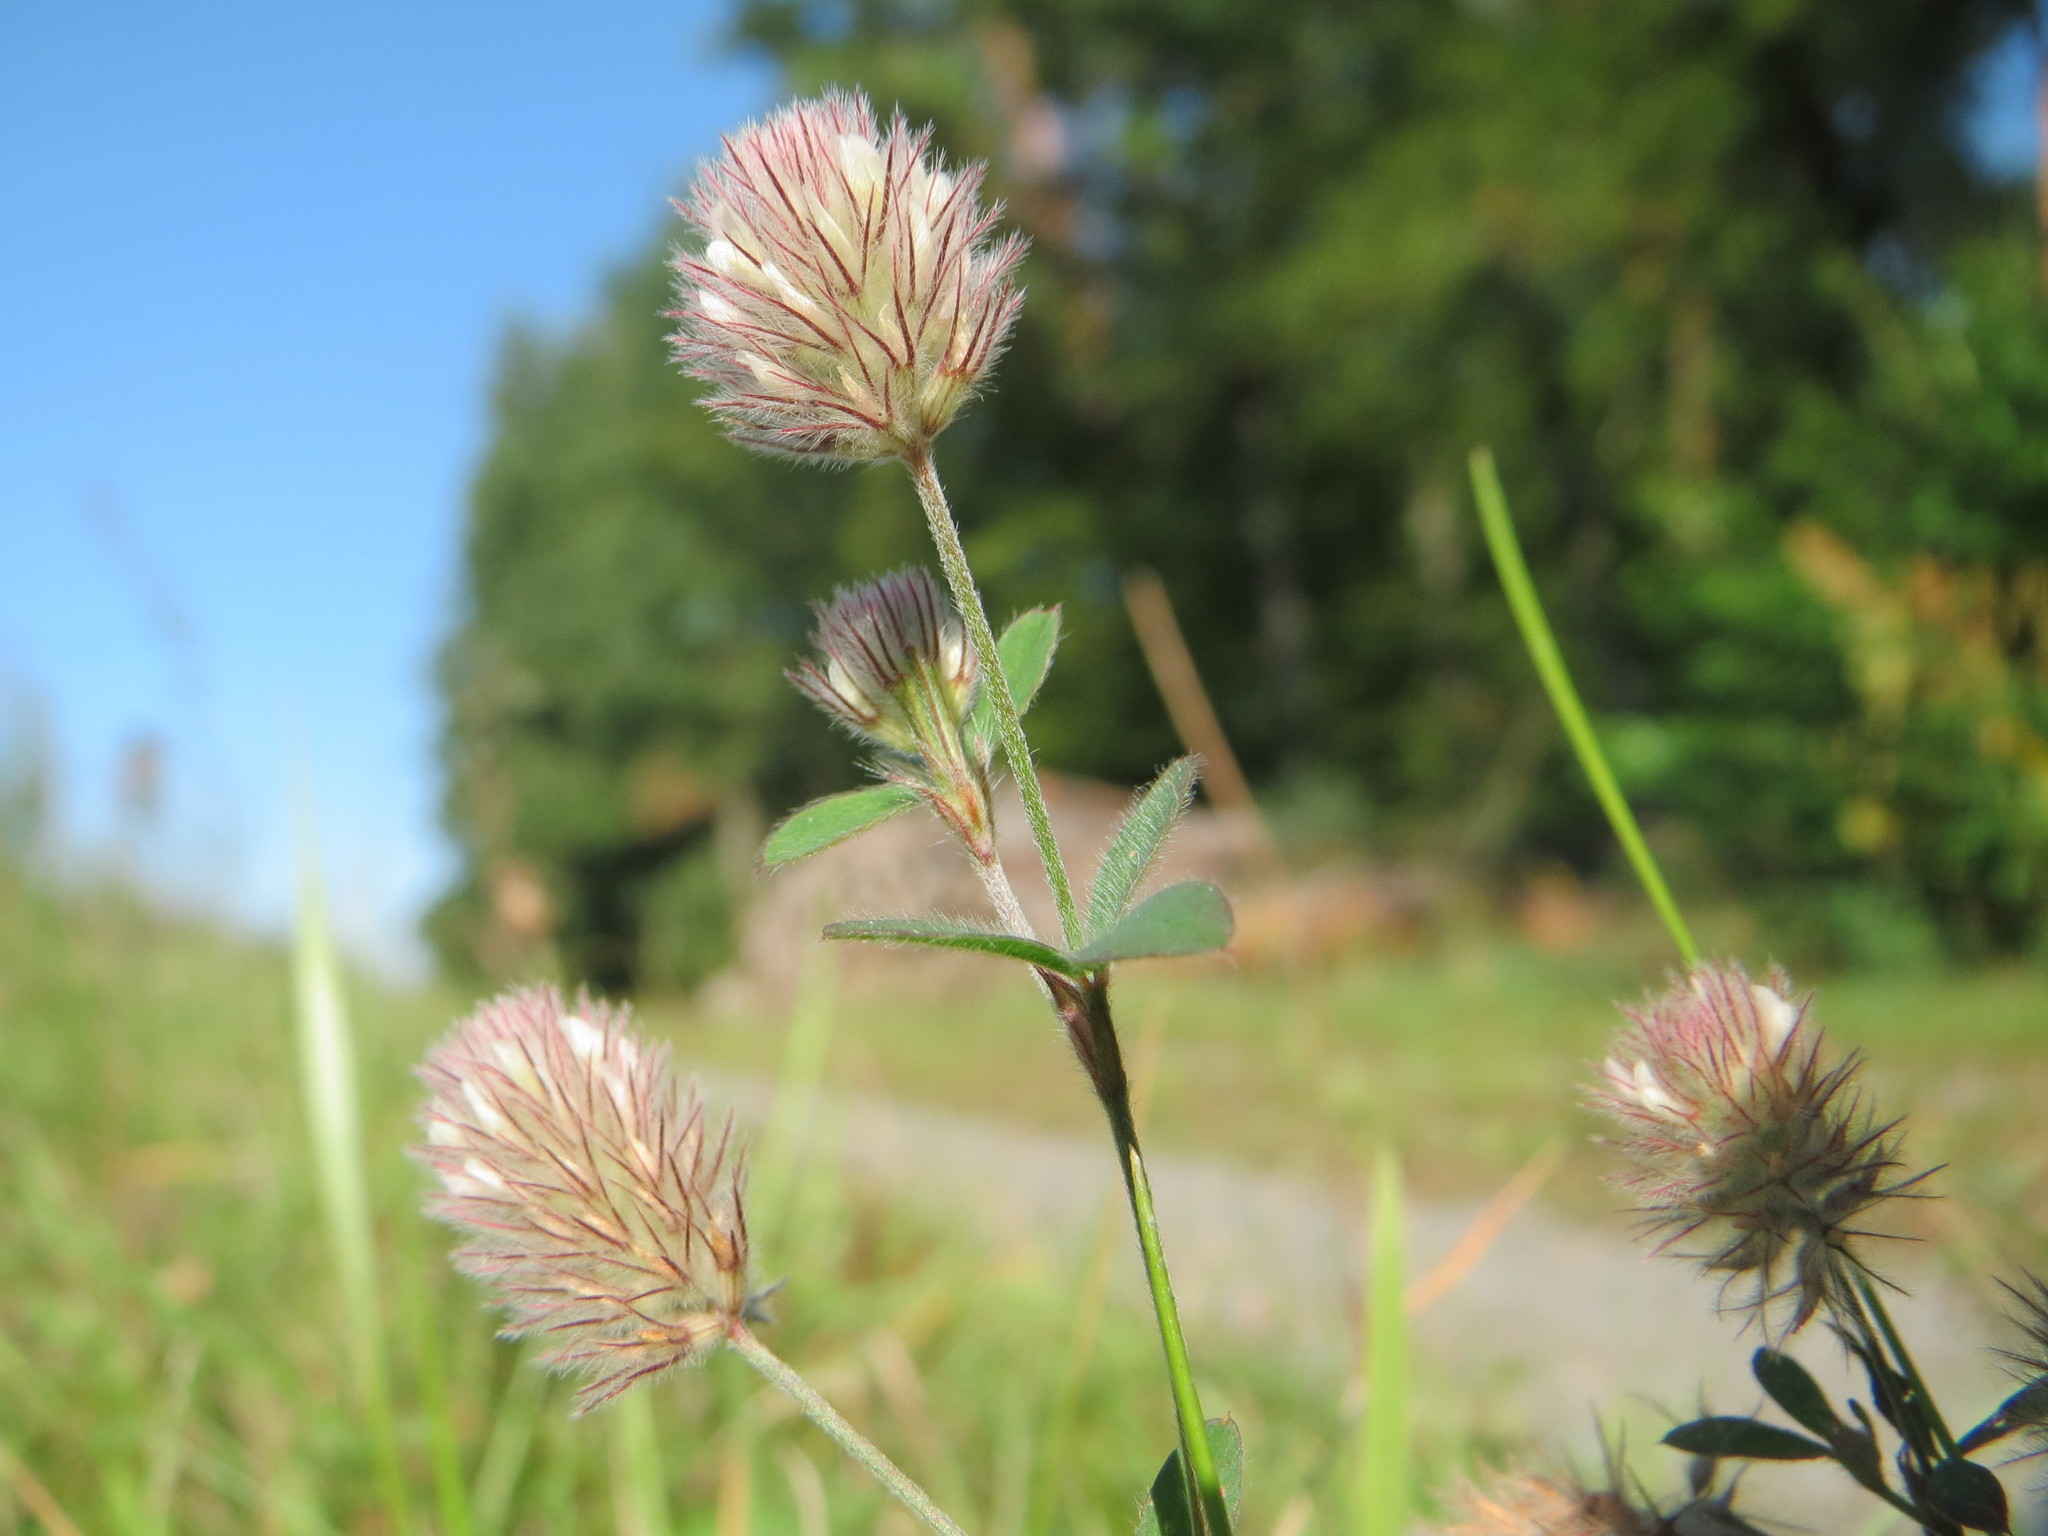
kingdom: Plantae
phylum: Tracheophyta
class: Magnoliopsida
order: Fabales
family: Fabaceae
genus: Trifolium
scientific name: Trifolium arvense
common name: Hare's-foot clover
